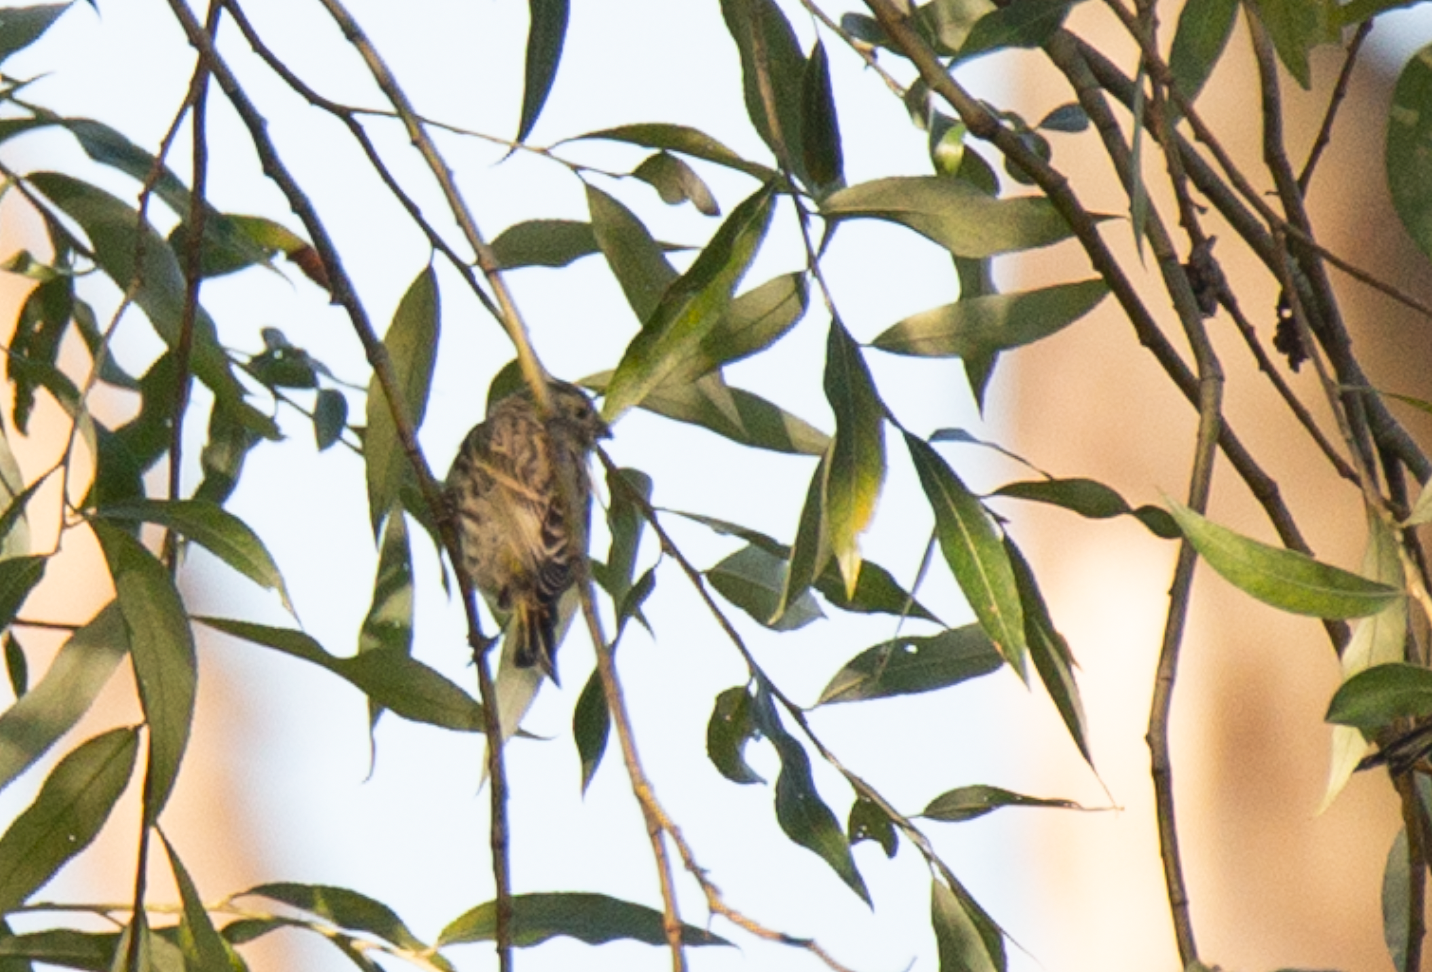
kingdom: Animalia
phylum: Chordata
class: Aves
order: Passeriformes
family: Fringillidae
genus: Serinus
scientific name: Serinus serinus
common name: European serin
